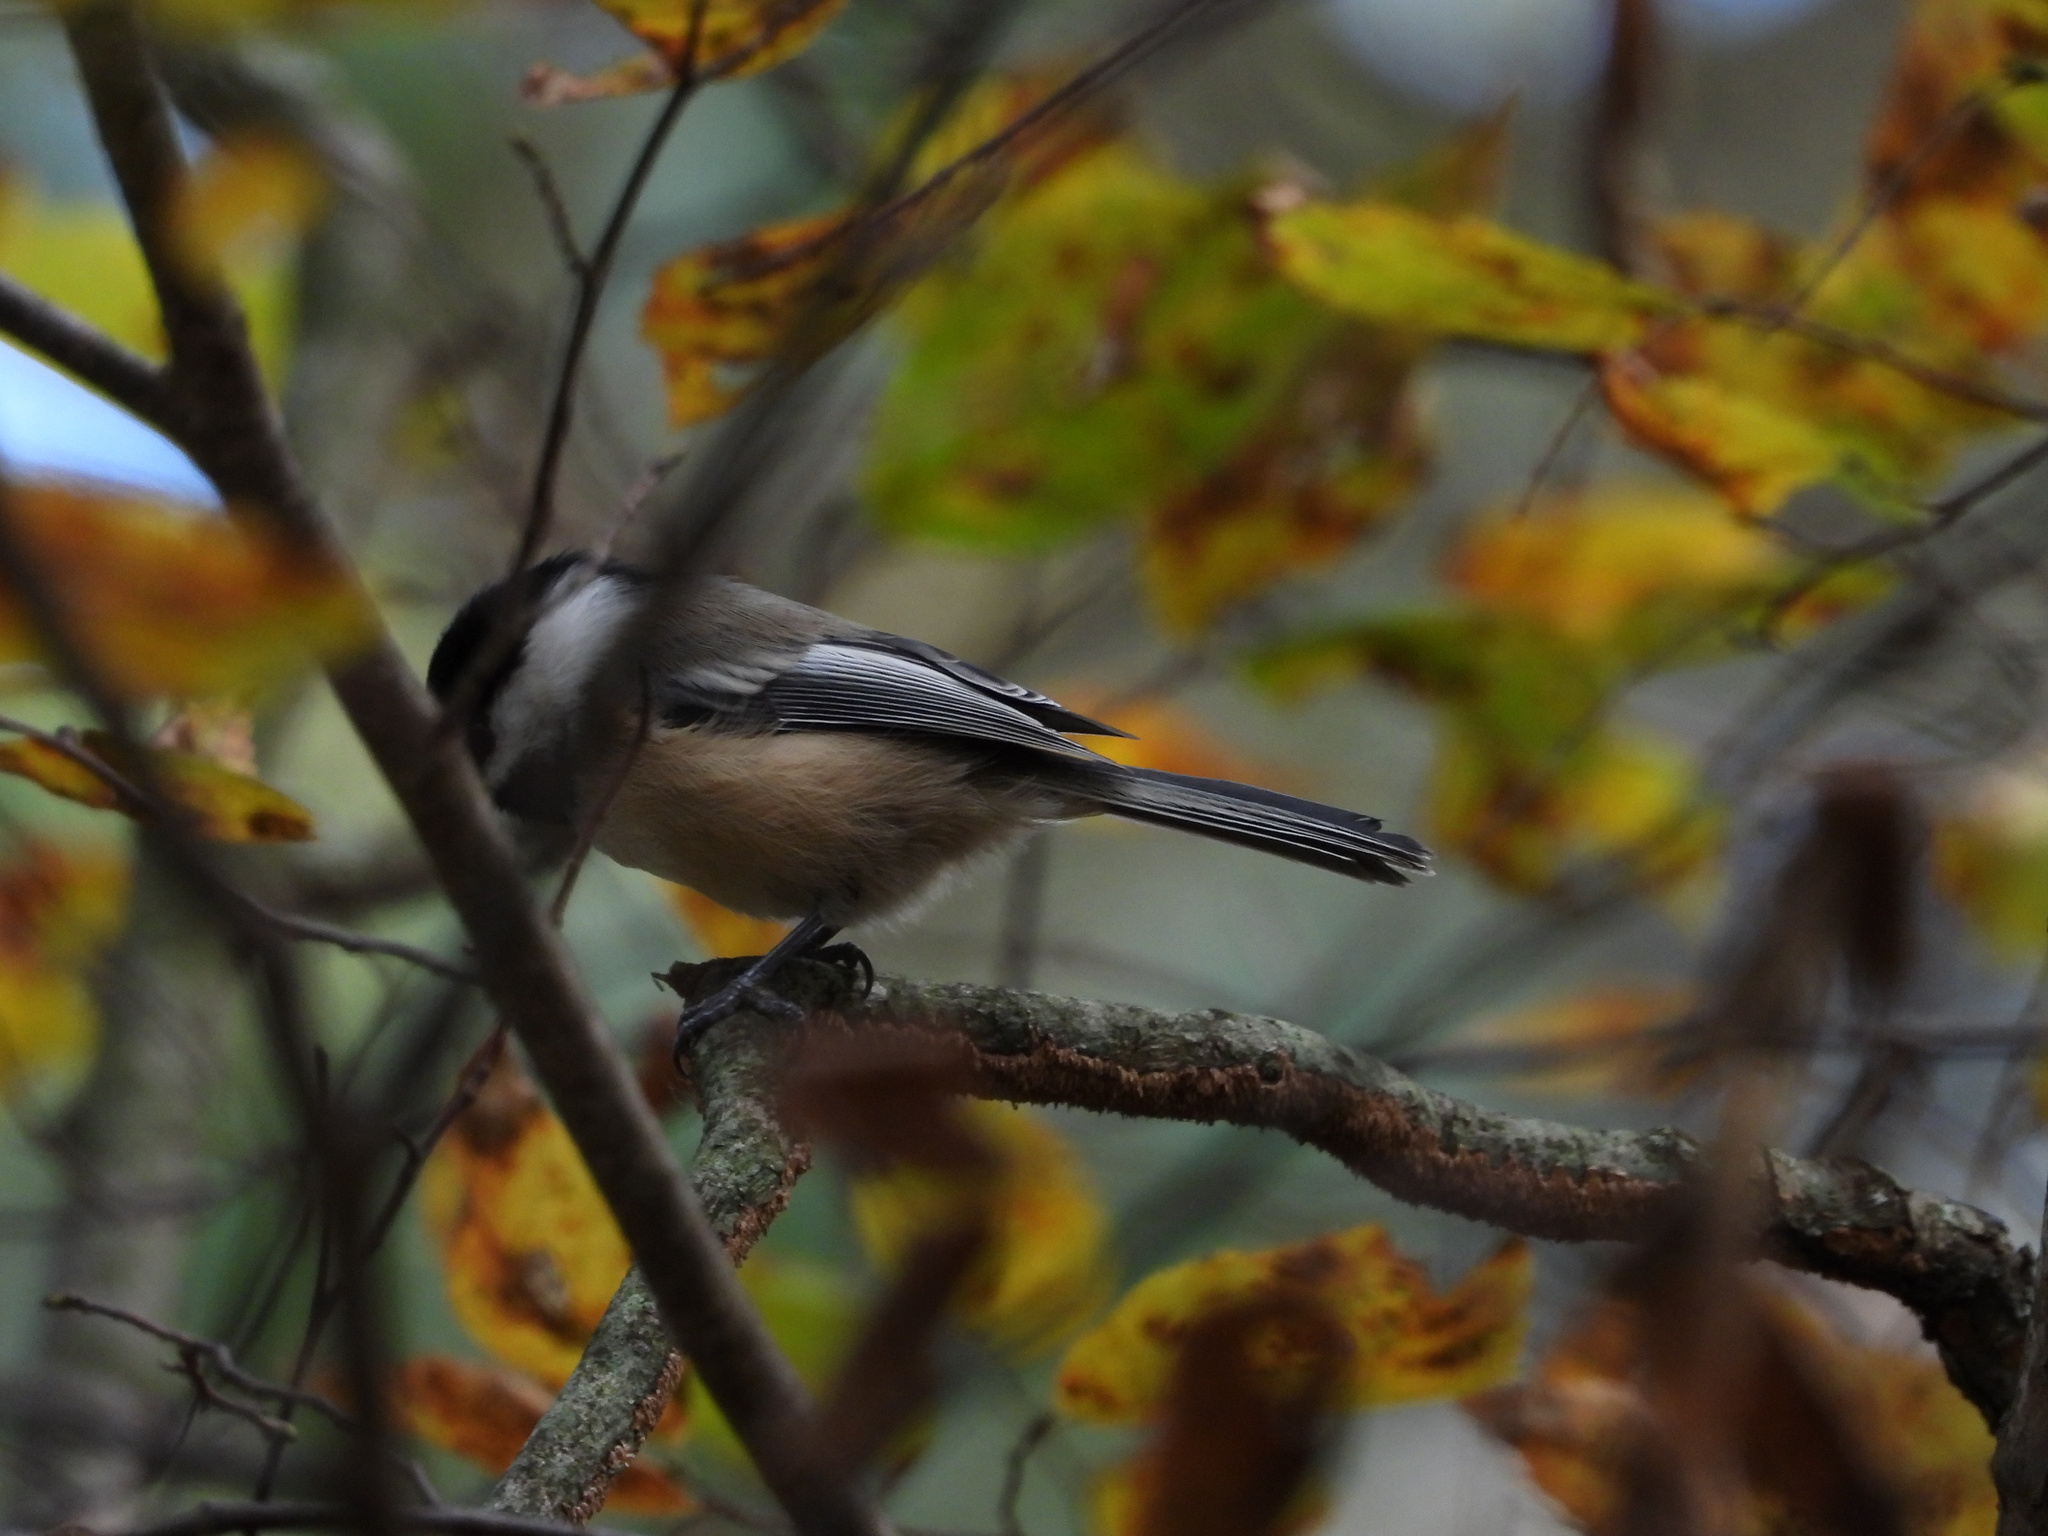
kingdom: Animalia
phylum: Chordata
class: Aves
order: Passeriformes
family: Paridae
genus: Poecile
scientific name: Poecile atricapillus
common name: Black-capped chickadee
